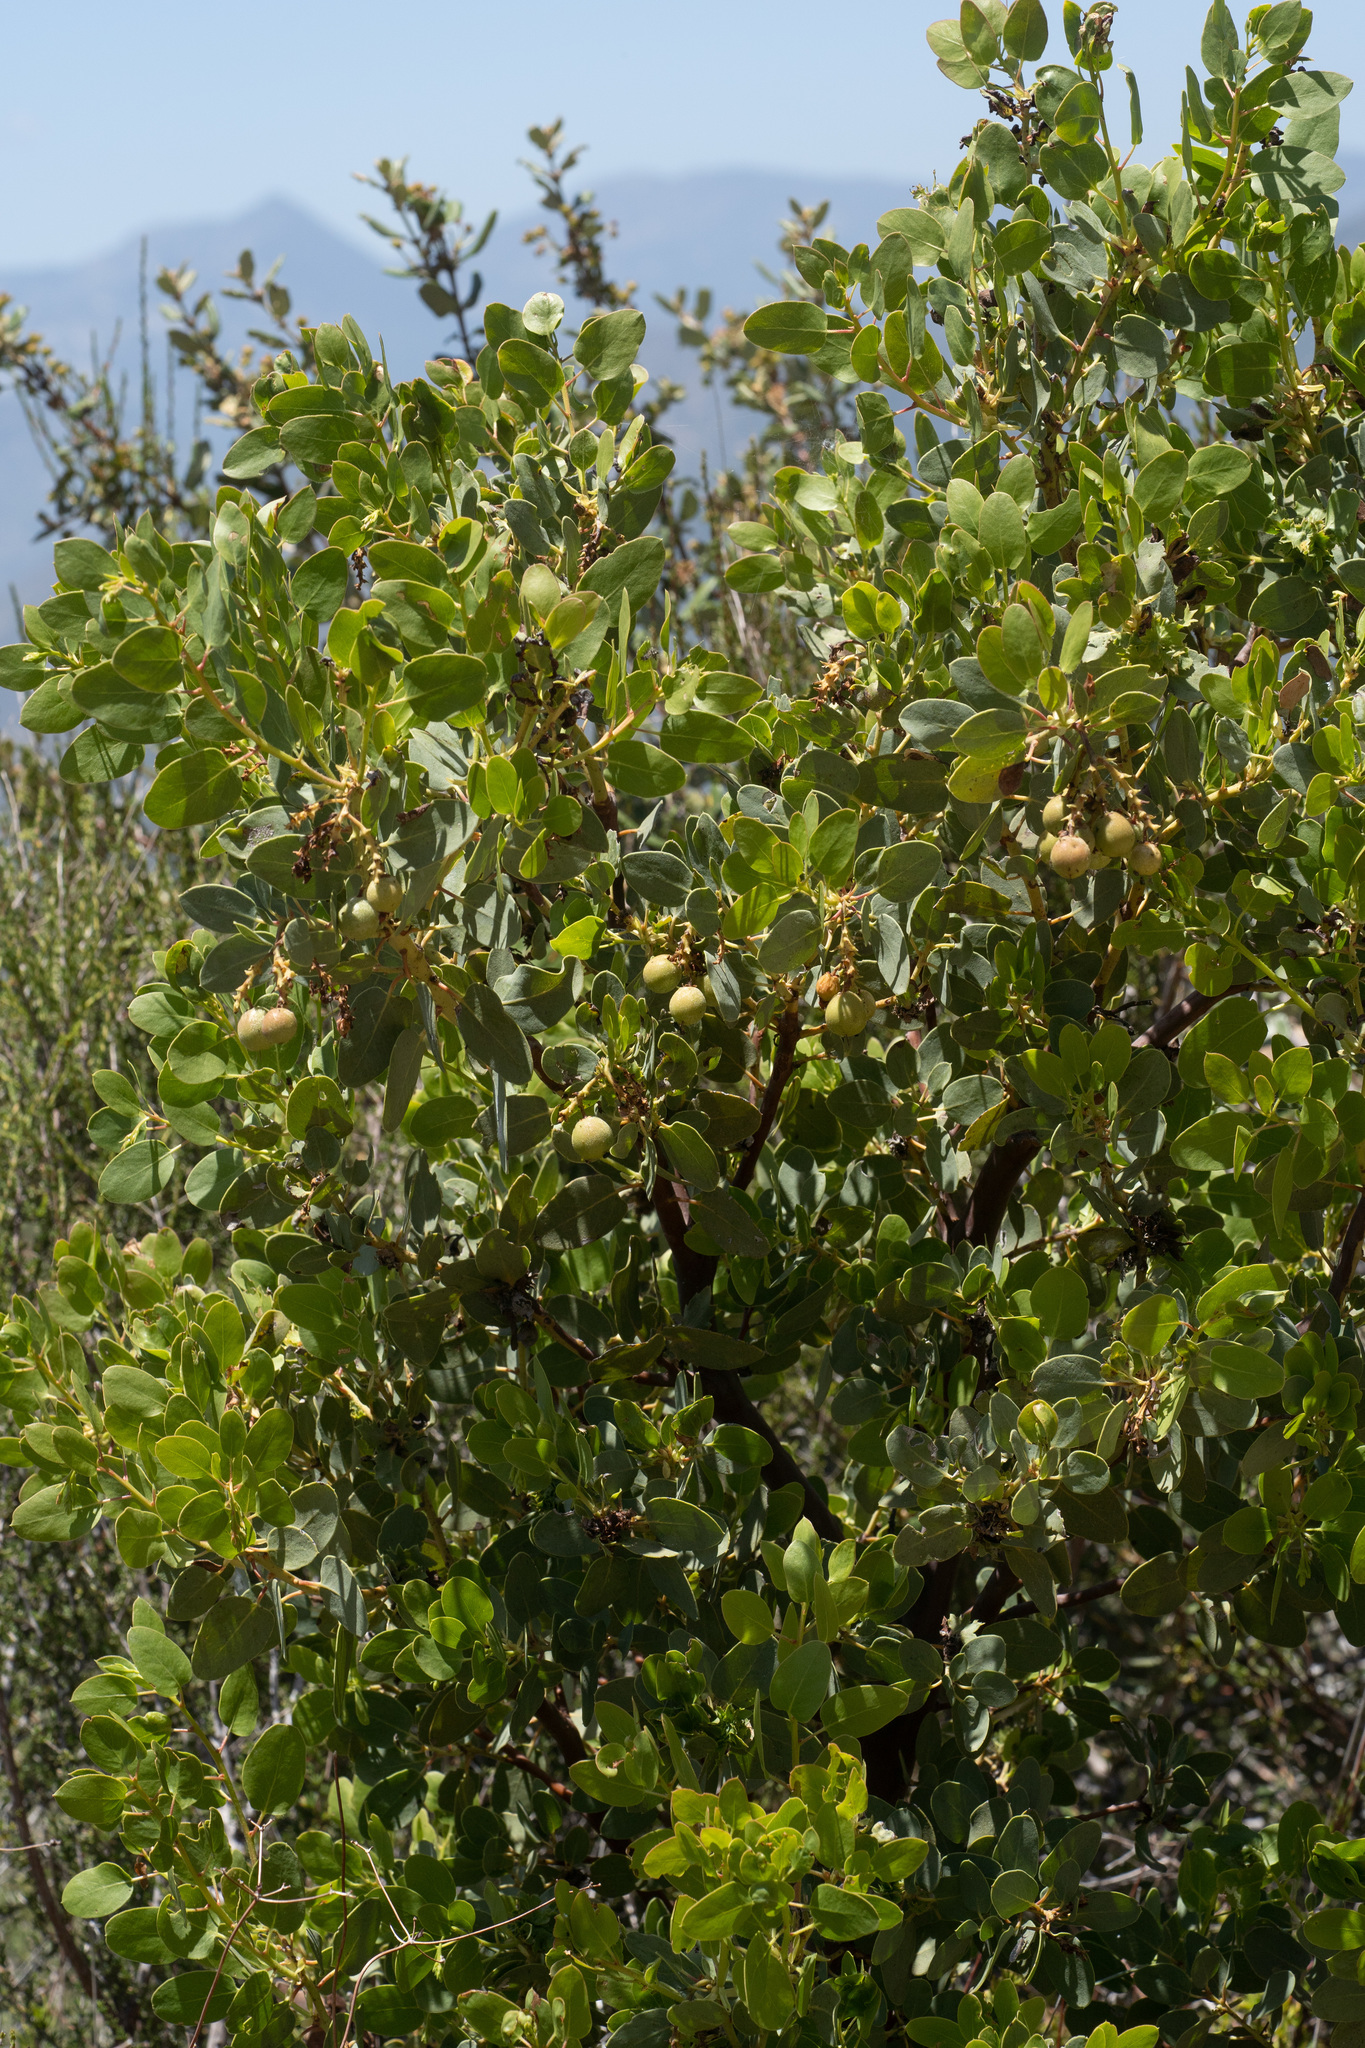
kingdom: Plantae
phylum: Tracheophyta
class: Magnoliopsida
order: Ericales
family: Ericaceae
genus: Arctostaphylos
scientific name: Arctostaphylos glauca
